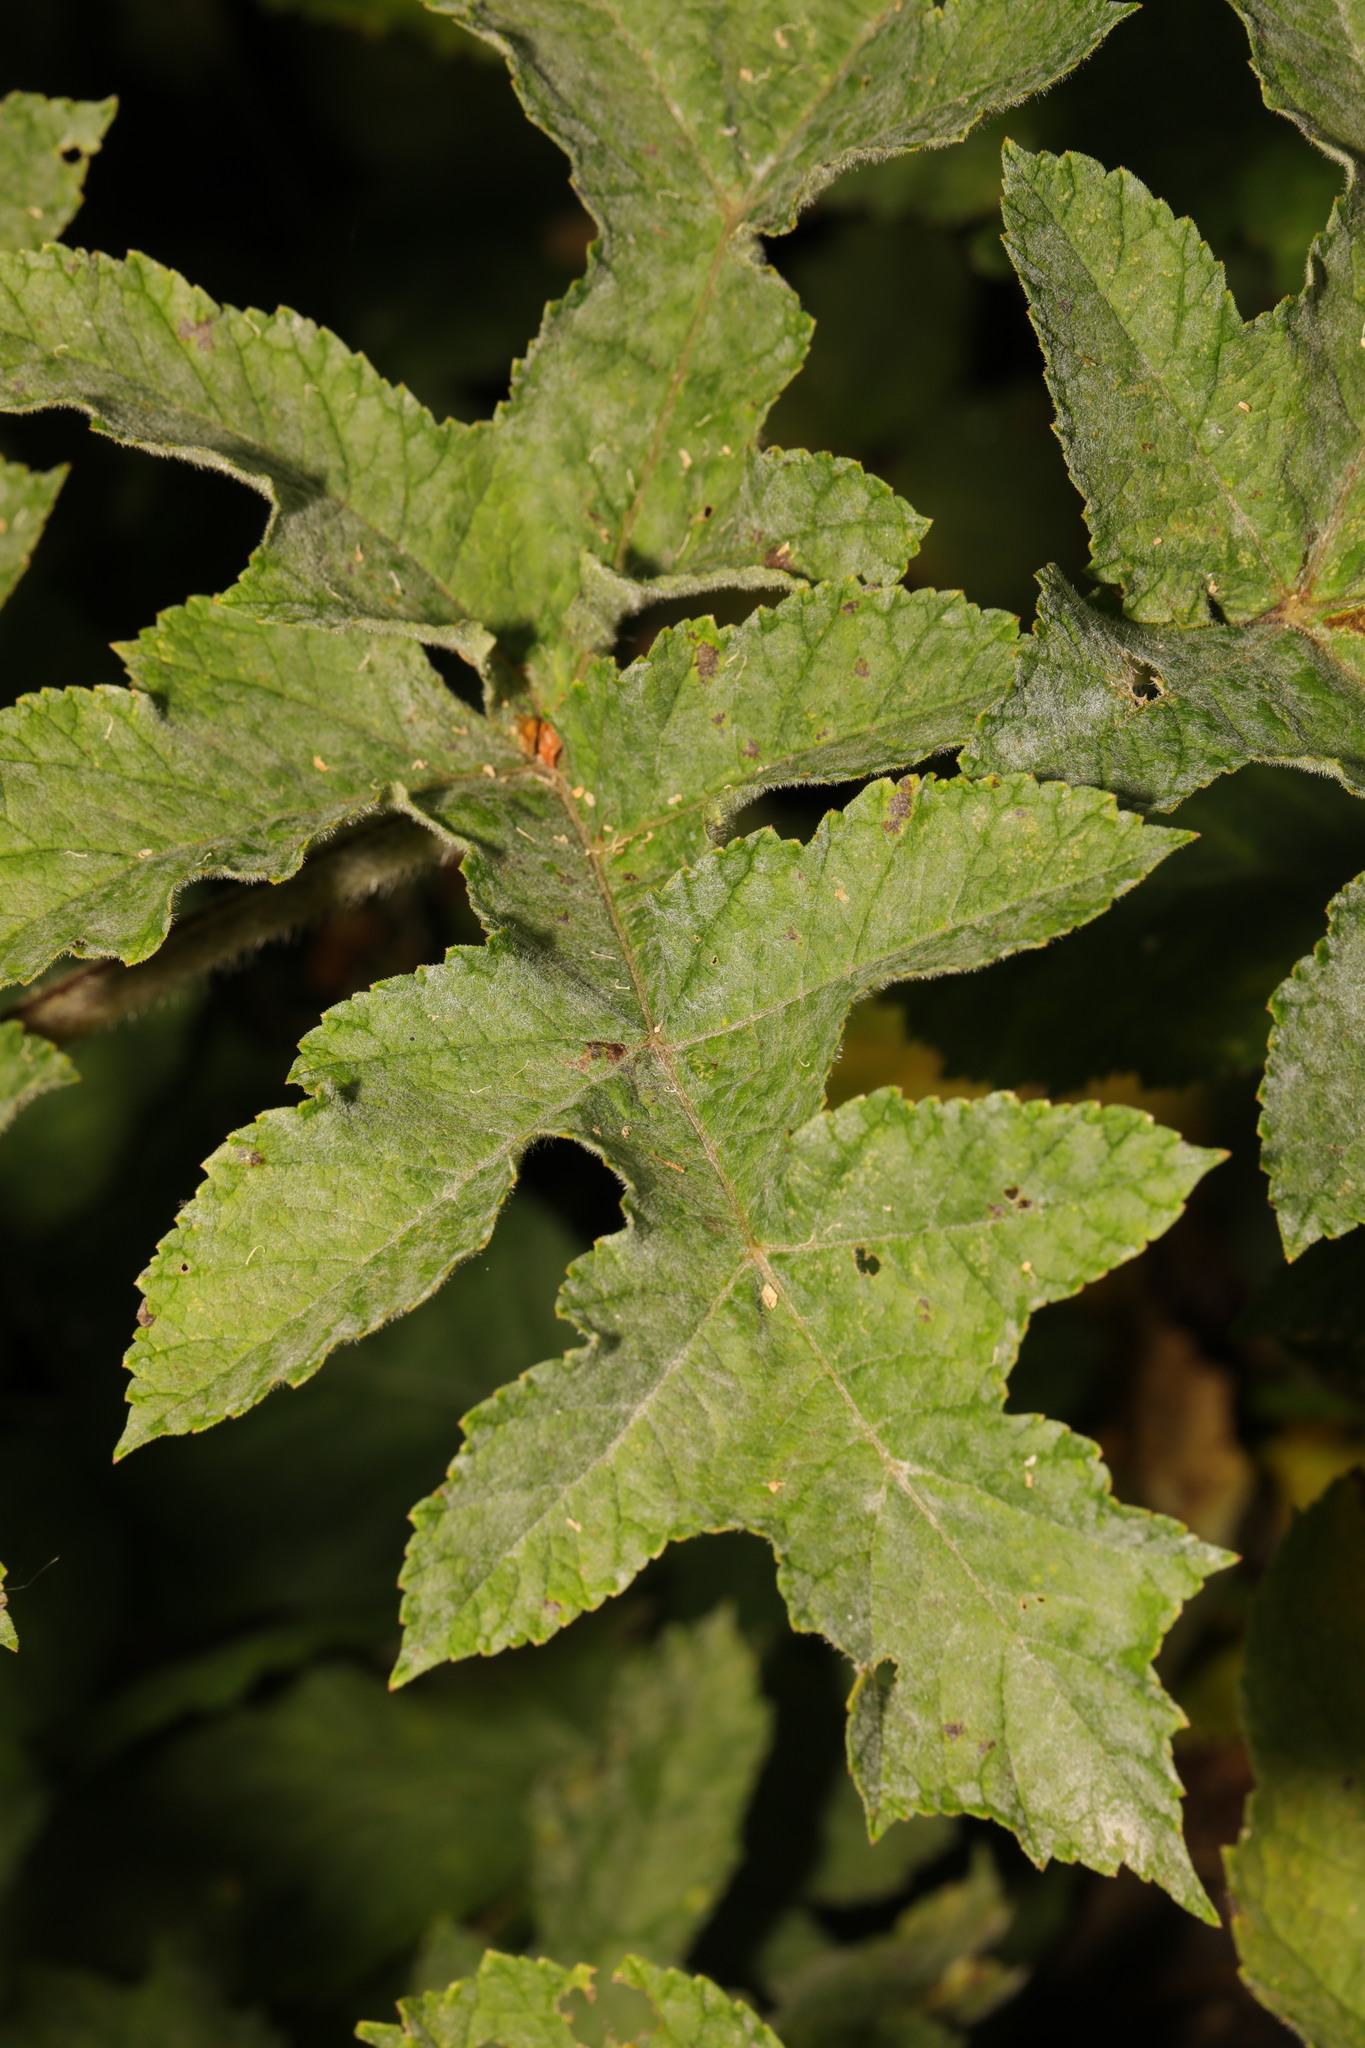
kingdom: Fungi
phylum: Ascomycota
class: Leotiomycetes
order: Helotiales
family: Erysiphaceae
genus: Erysiphe
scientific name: Erysiphe heraclei
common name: Umbellifer mildew
